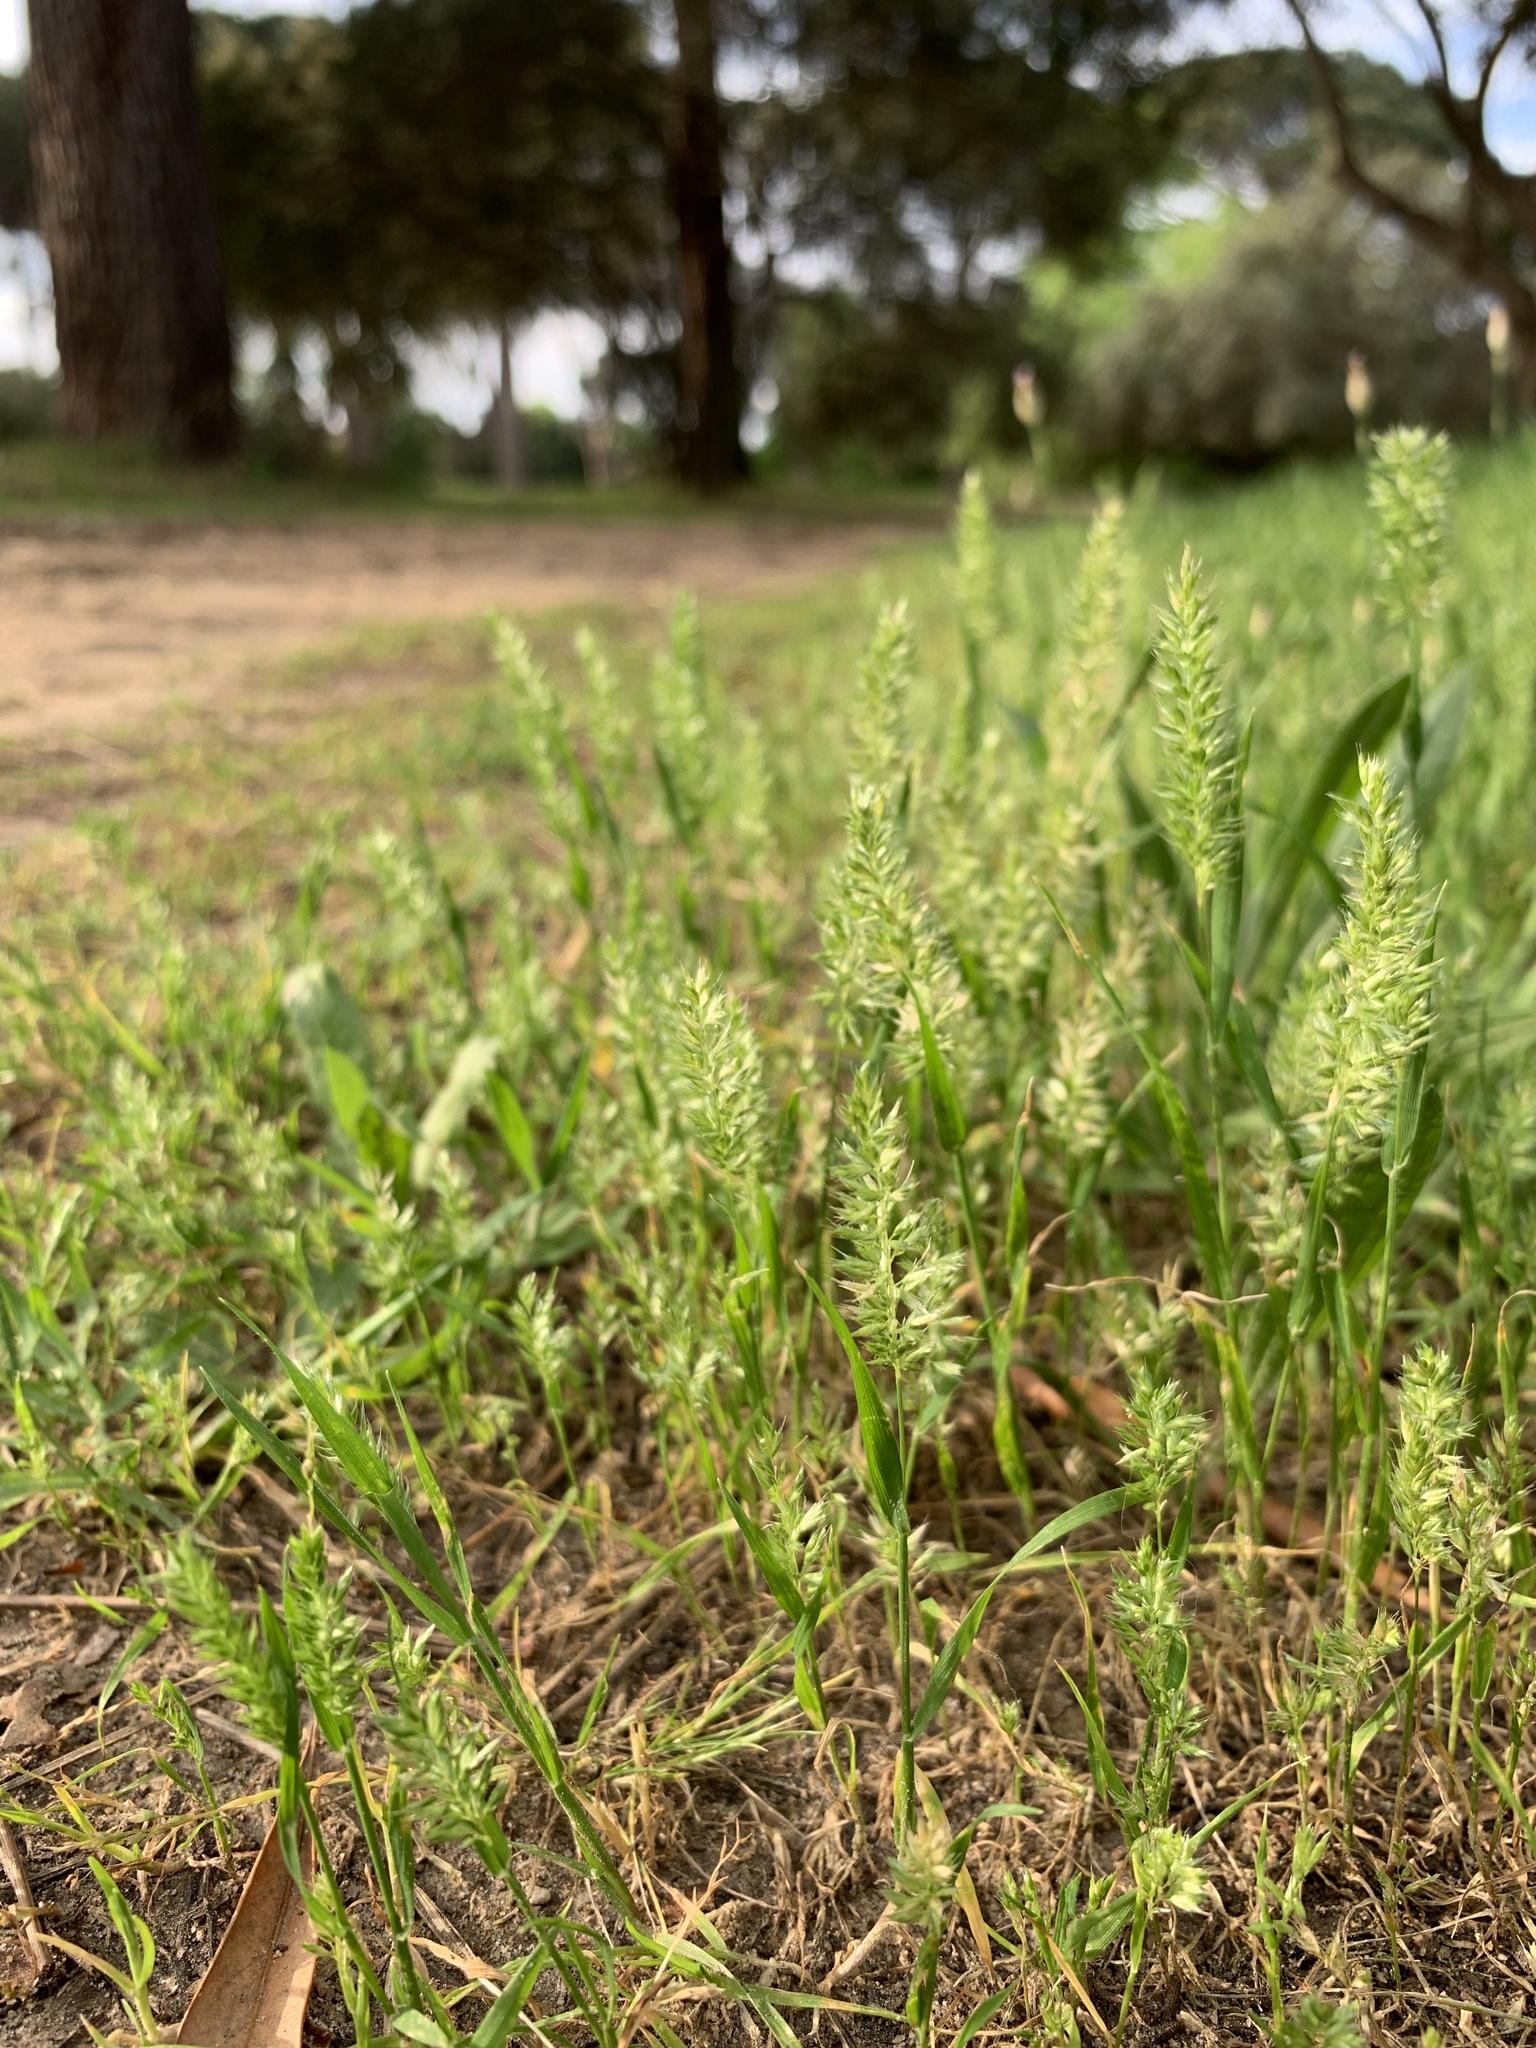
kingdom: Plantae
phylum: Tracheophyta
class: Liliopsida
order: Poales
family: Poaceae
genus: Rostraria
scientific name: Rostraria cristata
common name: Mediterranean hair-grass
